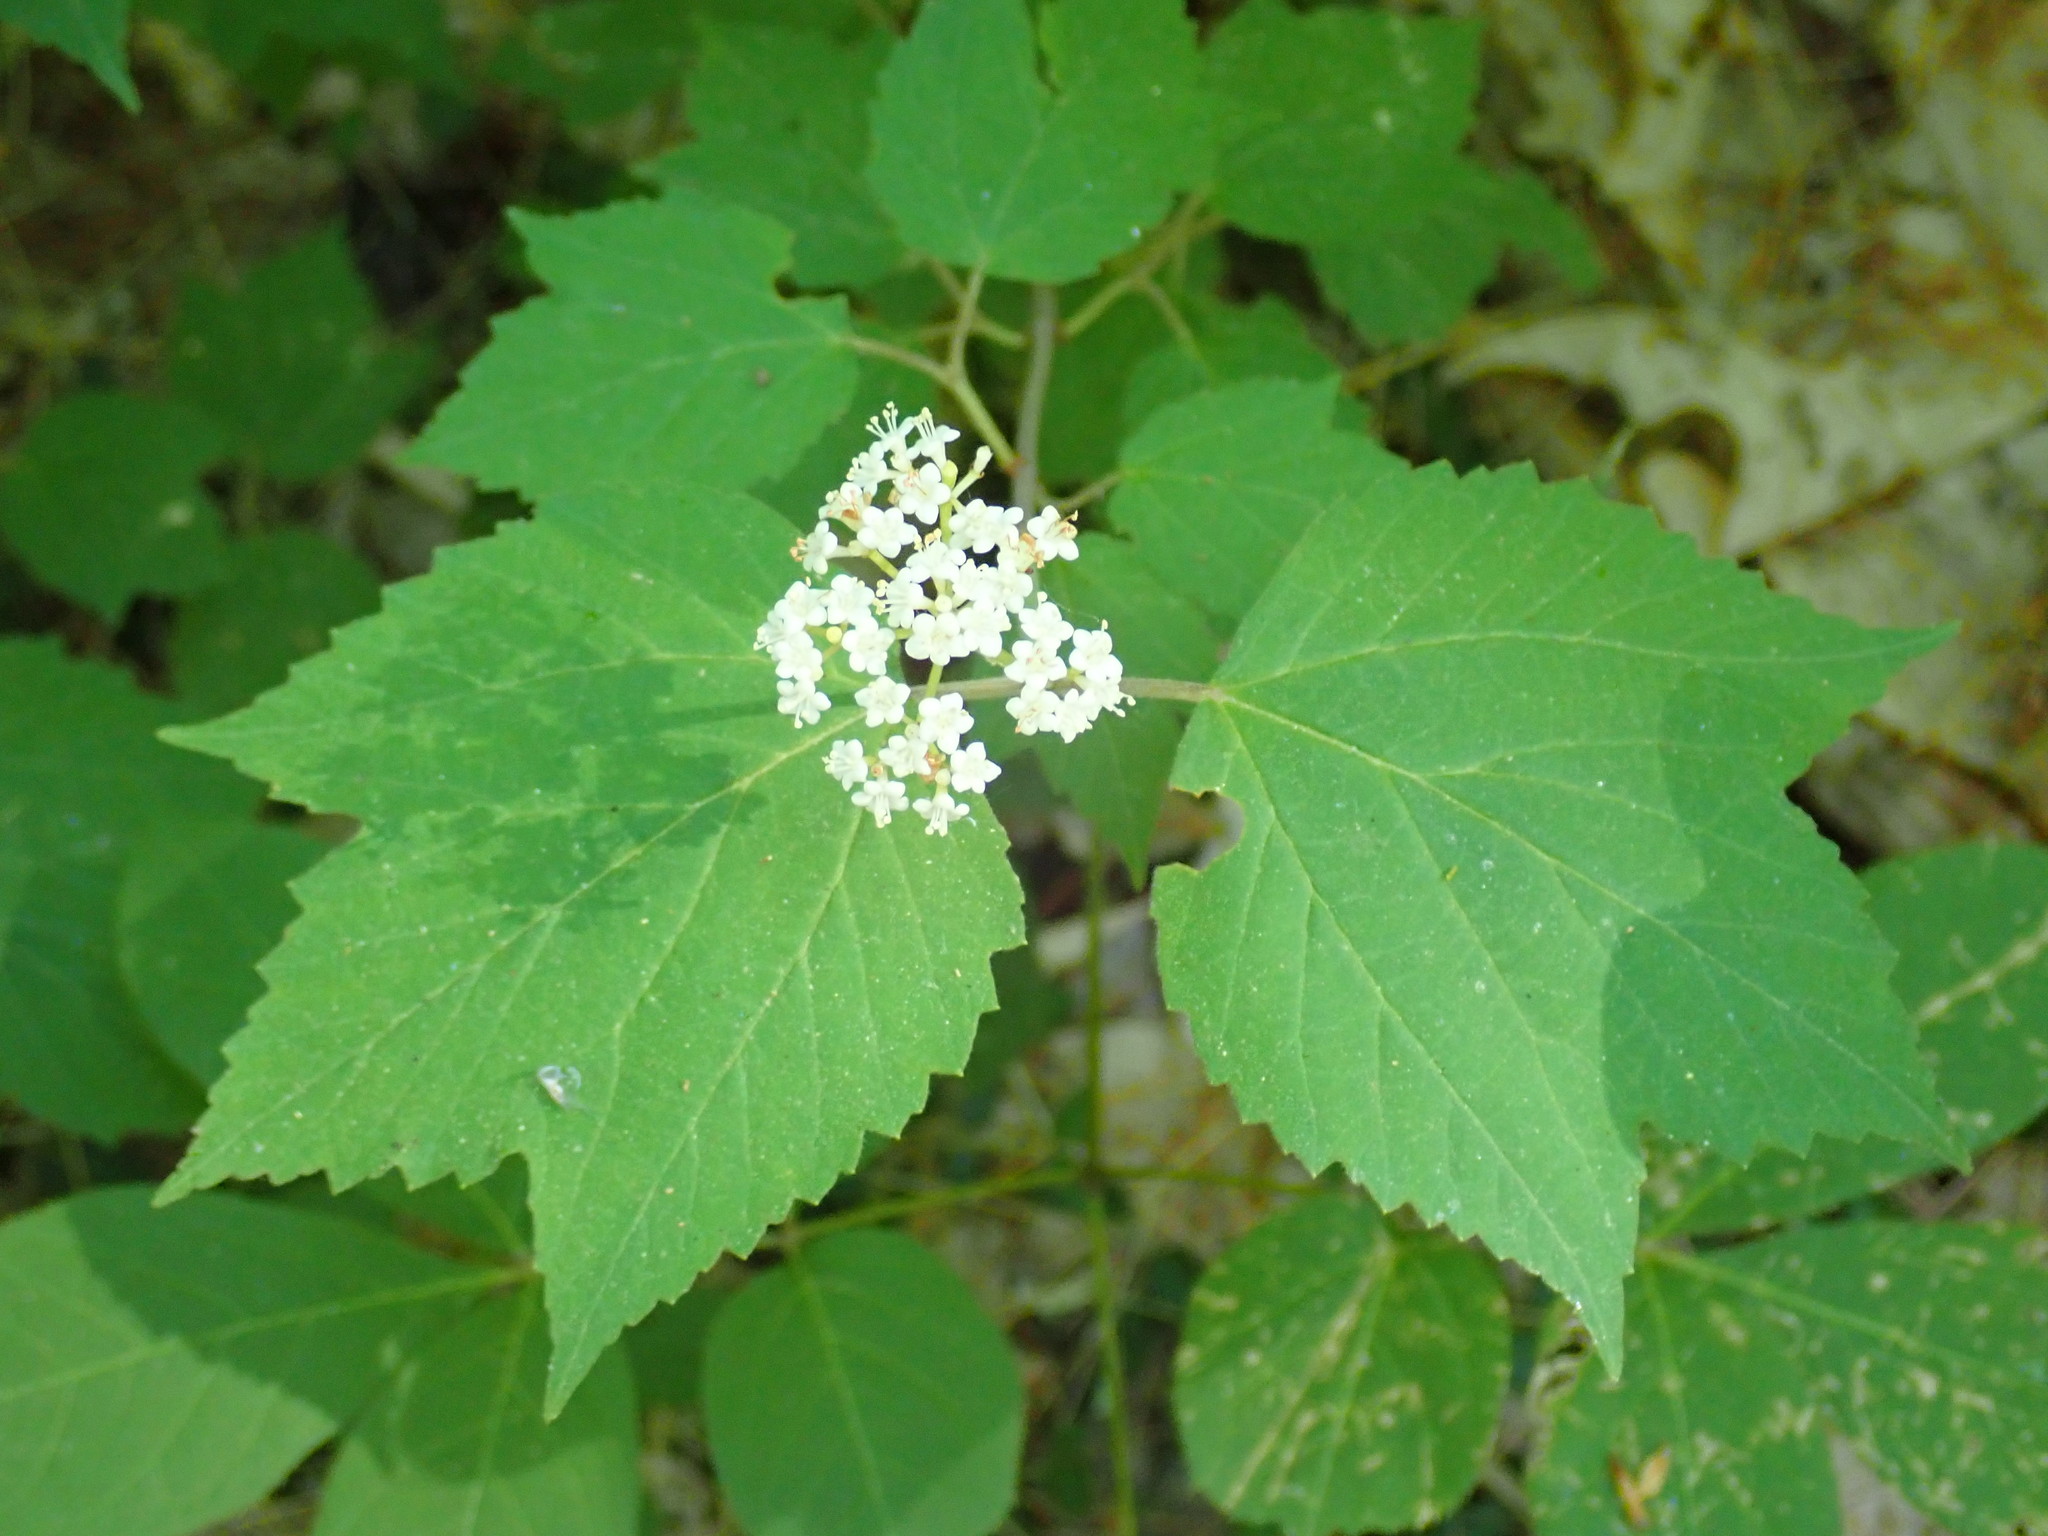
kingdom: Plantae
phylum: Tracheophyta
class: Magnoliopsida
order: Dipsacales
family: Viburnaceae
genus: Viburnum
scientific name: Viburnum acerifolium
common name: Dockmackie
